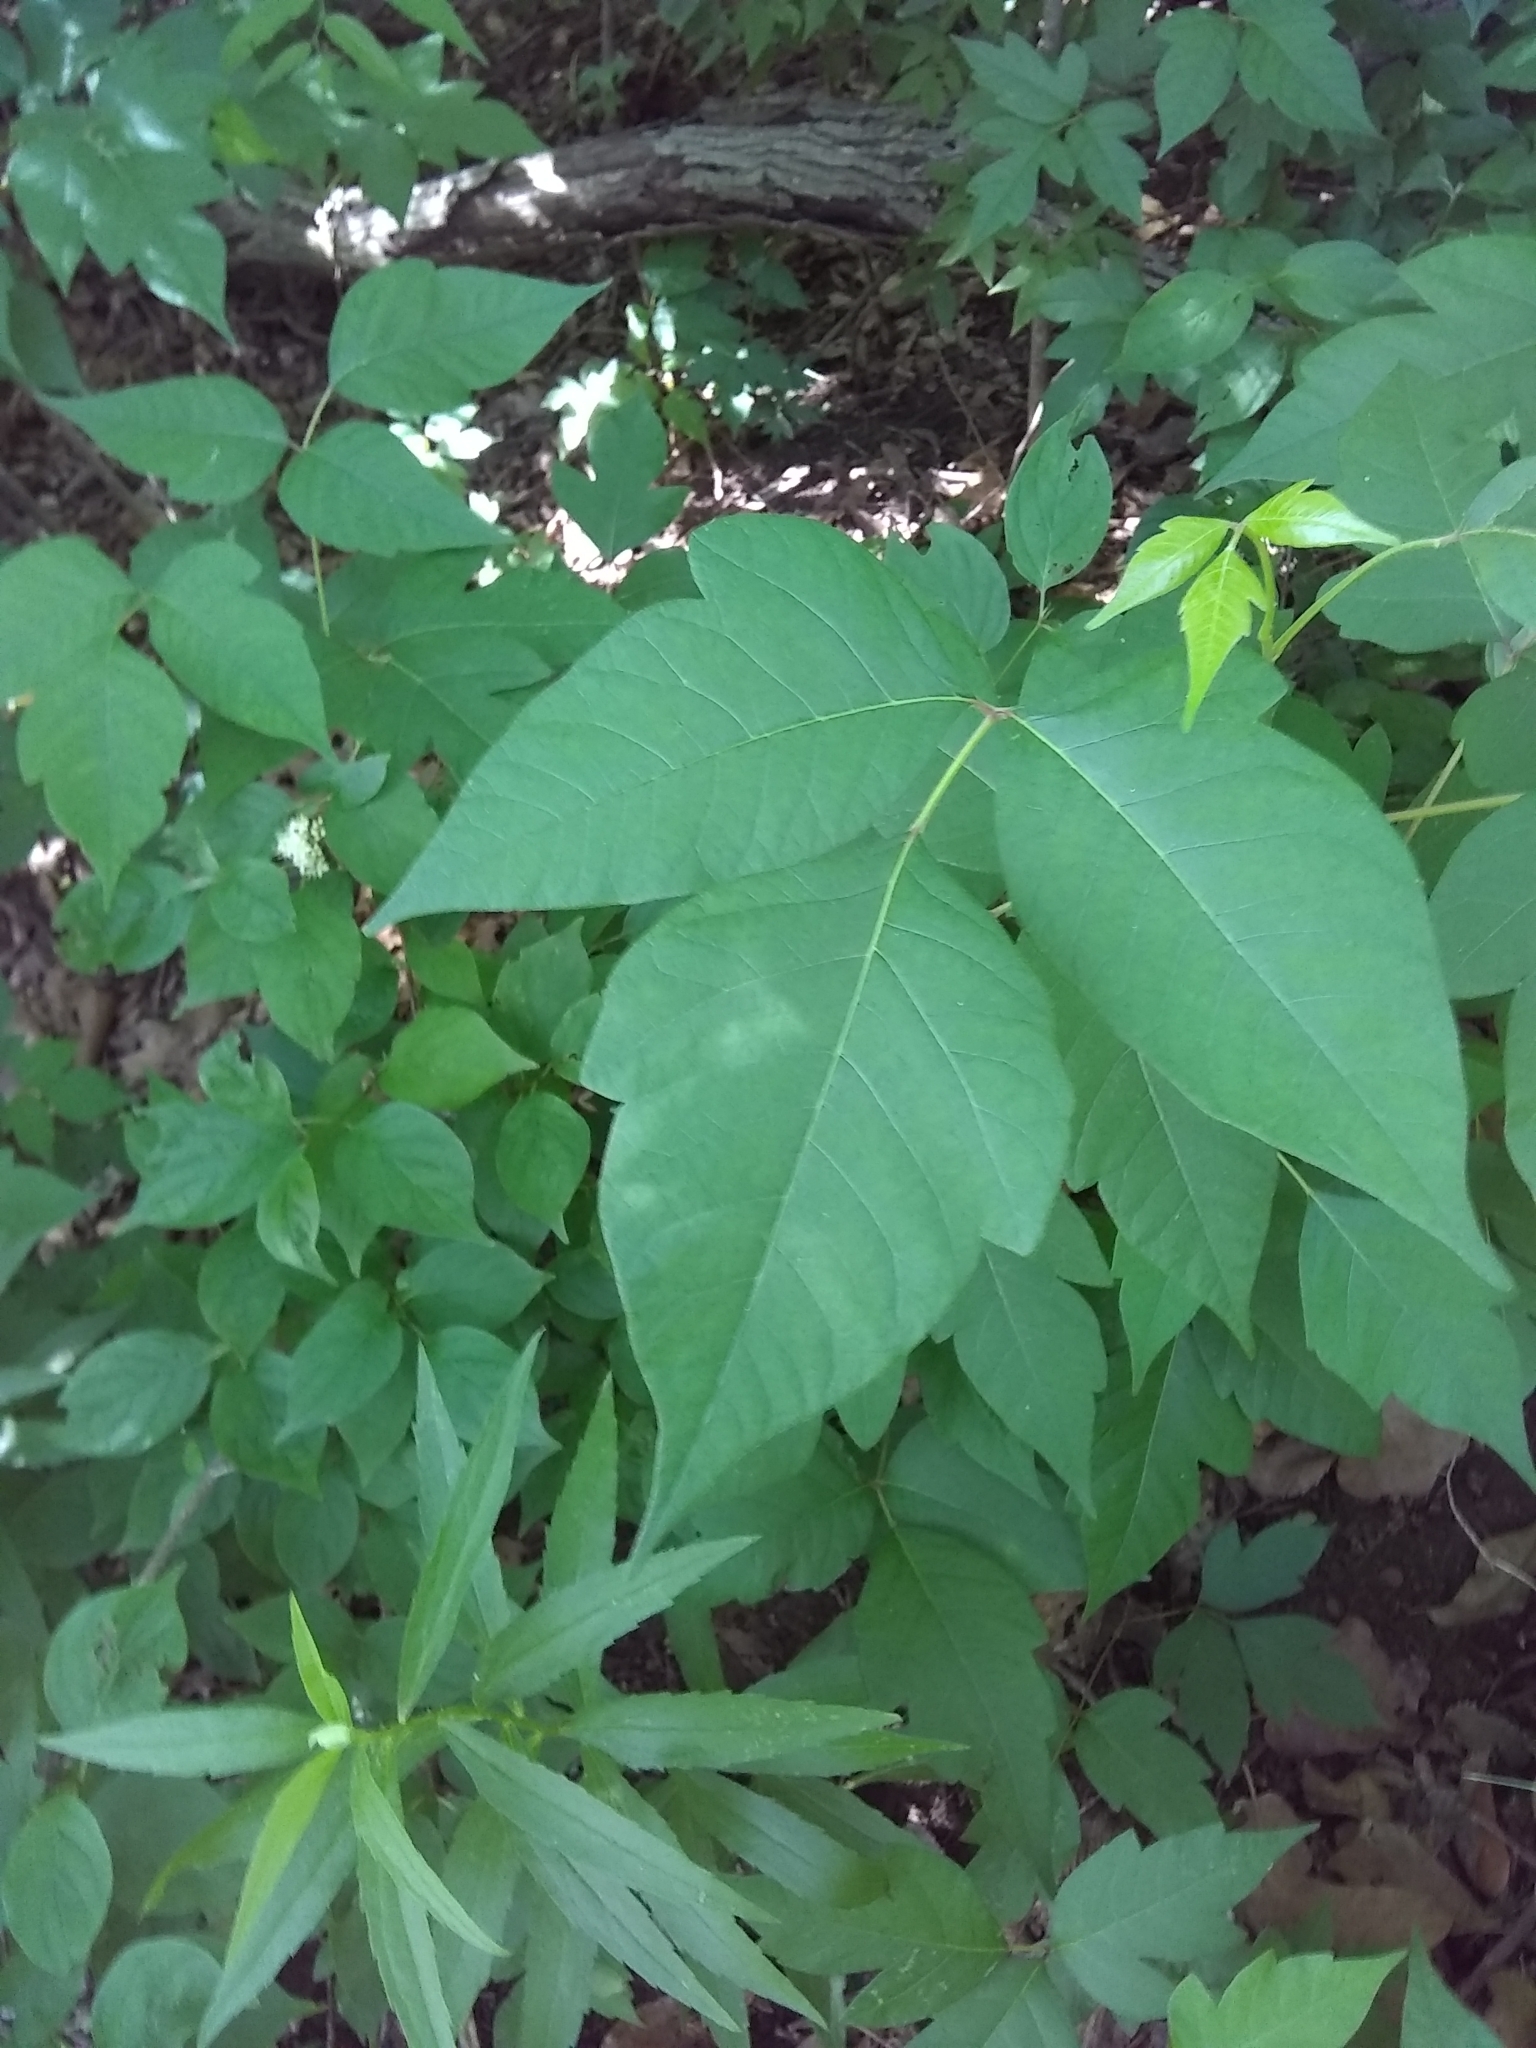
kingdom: Plantae
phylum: Tracheophyta
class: Magnoliopsida
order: Sapindales
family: Anacardiaceae
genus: Toxicodendron
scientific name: Toxicodendron radicans
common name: Poison ivy
